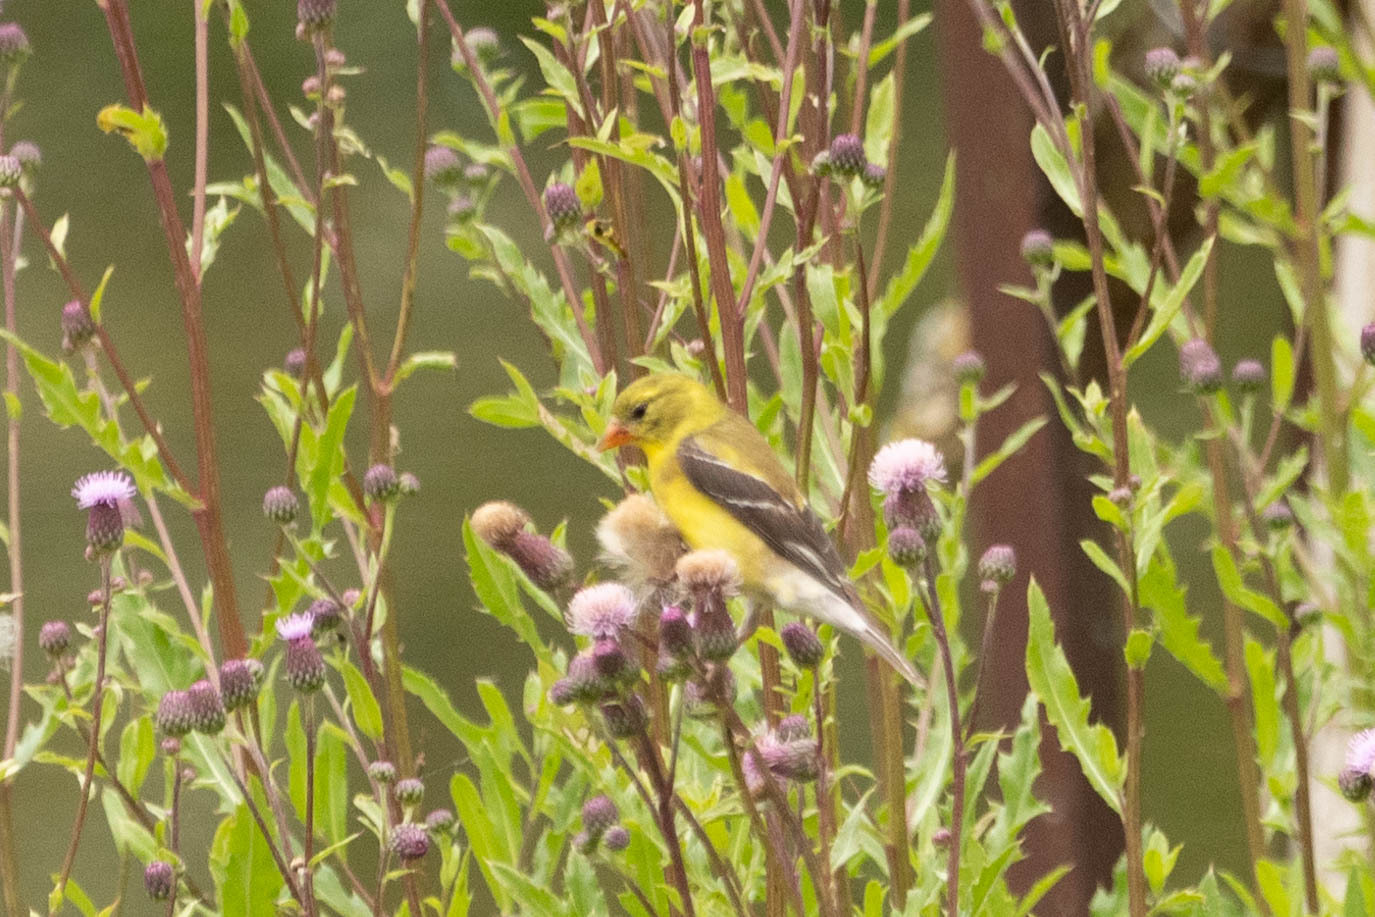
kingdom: Animalia
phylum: Chordata
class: Aves
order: Passeriformes
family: Fringillidae
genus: Spinus
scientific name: Spinus tristis
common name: American goldfinch
